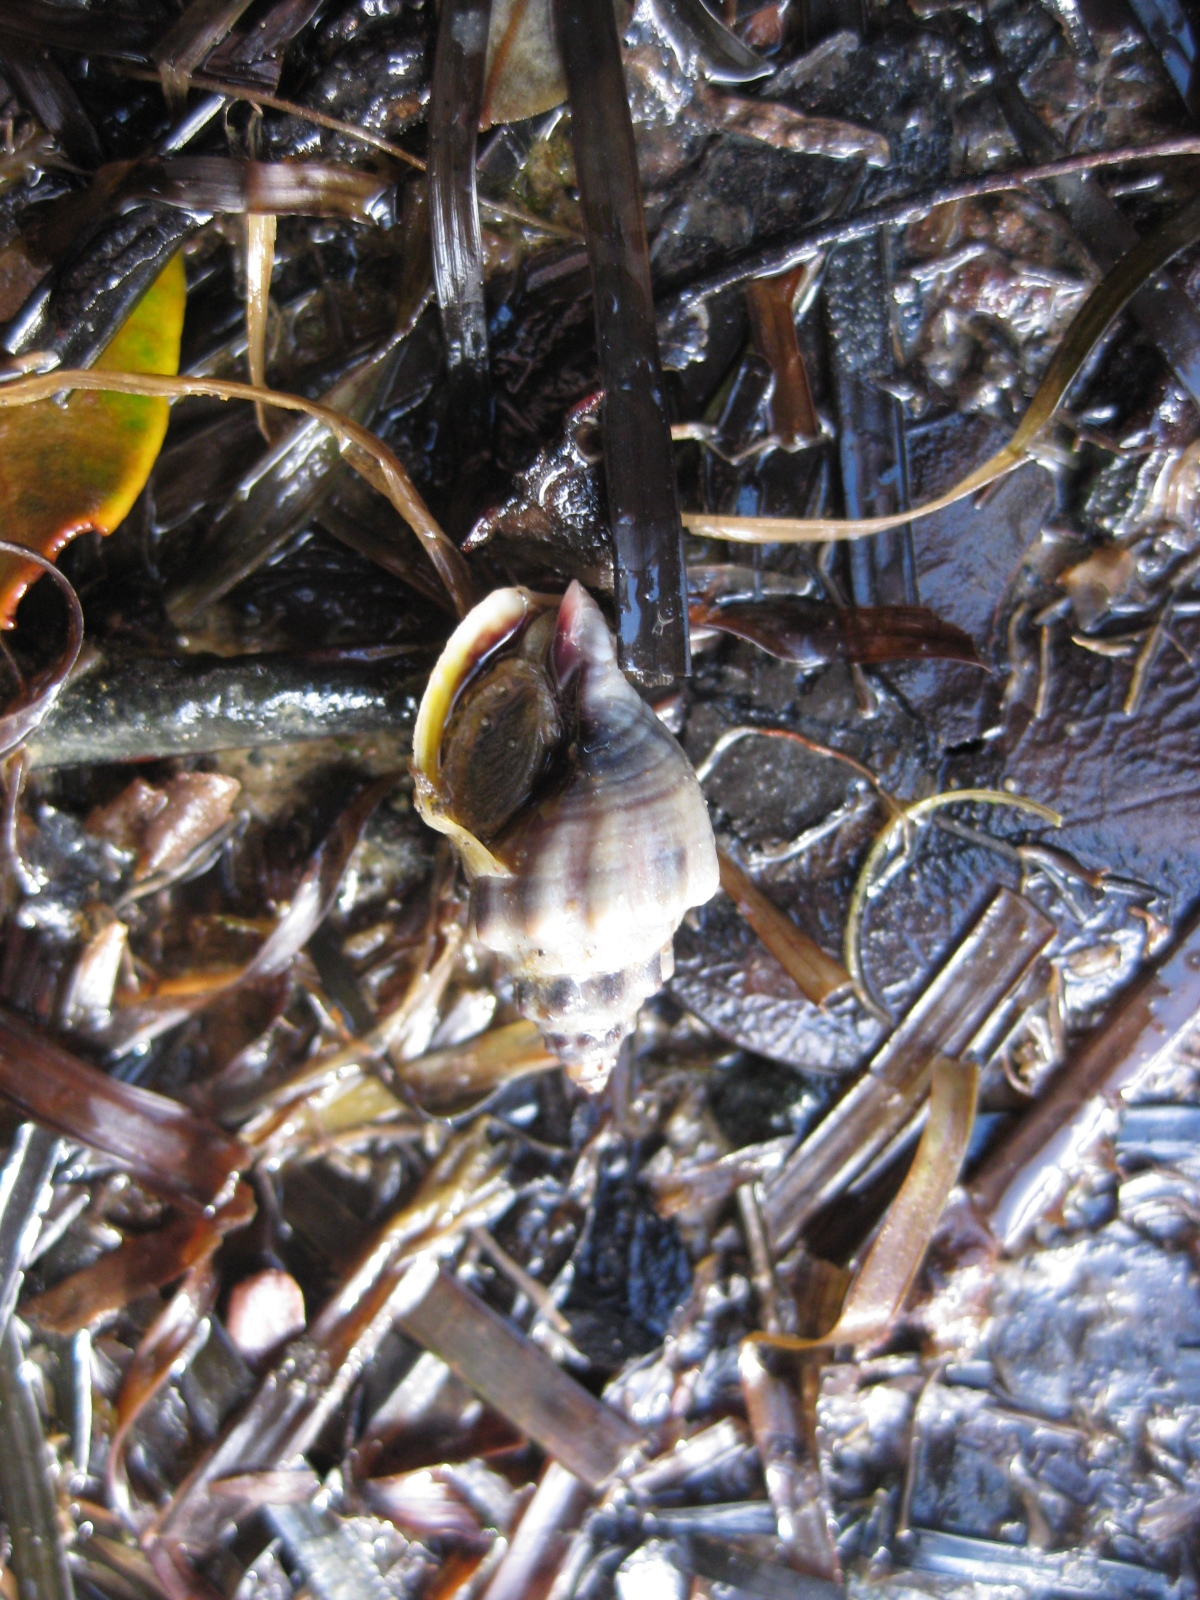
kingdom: Animalia
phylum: Mollusca
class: Gastropoda
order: Neogastropoda
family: Cominellidae
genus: Cominella
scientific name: Cominella glandiformis
